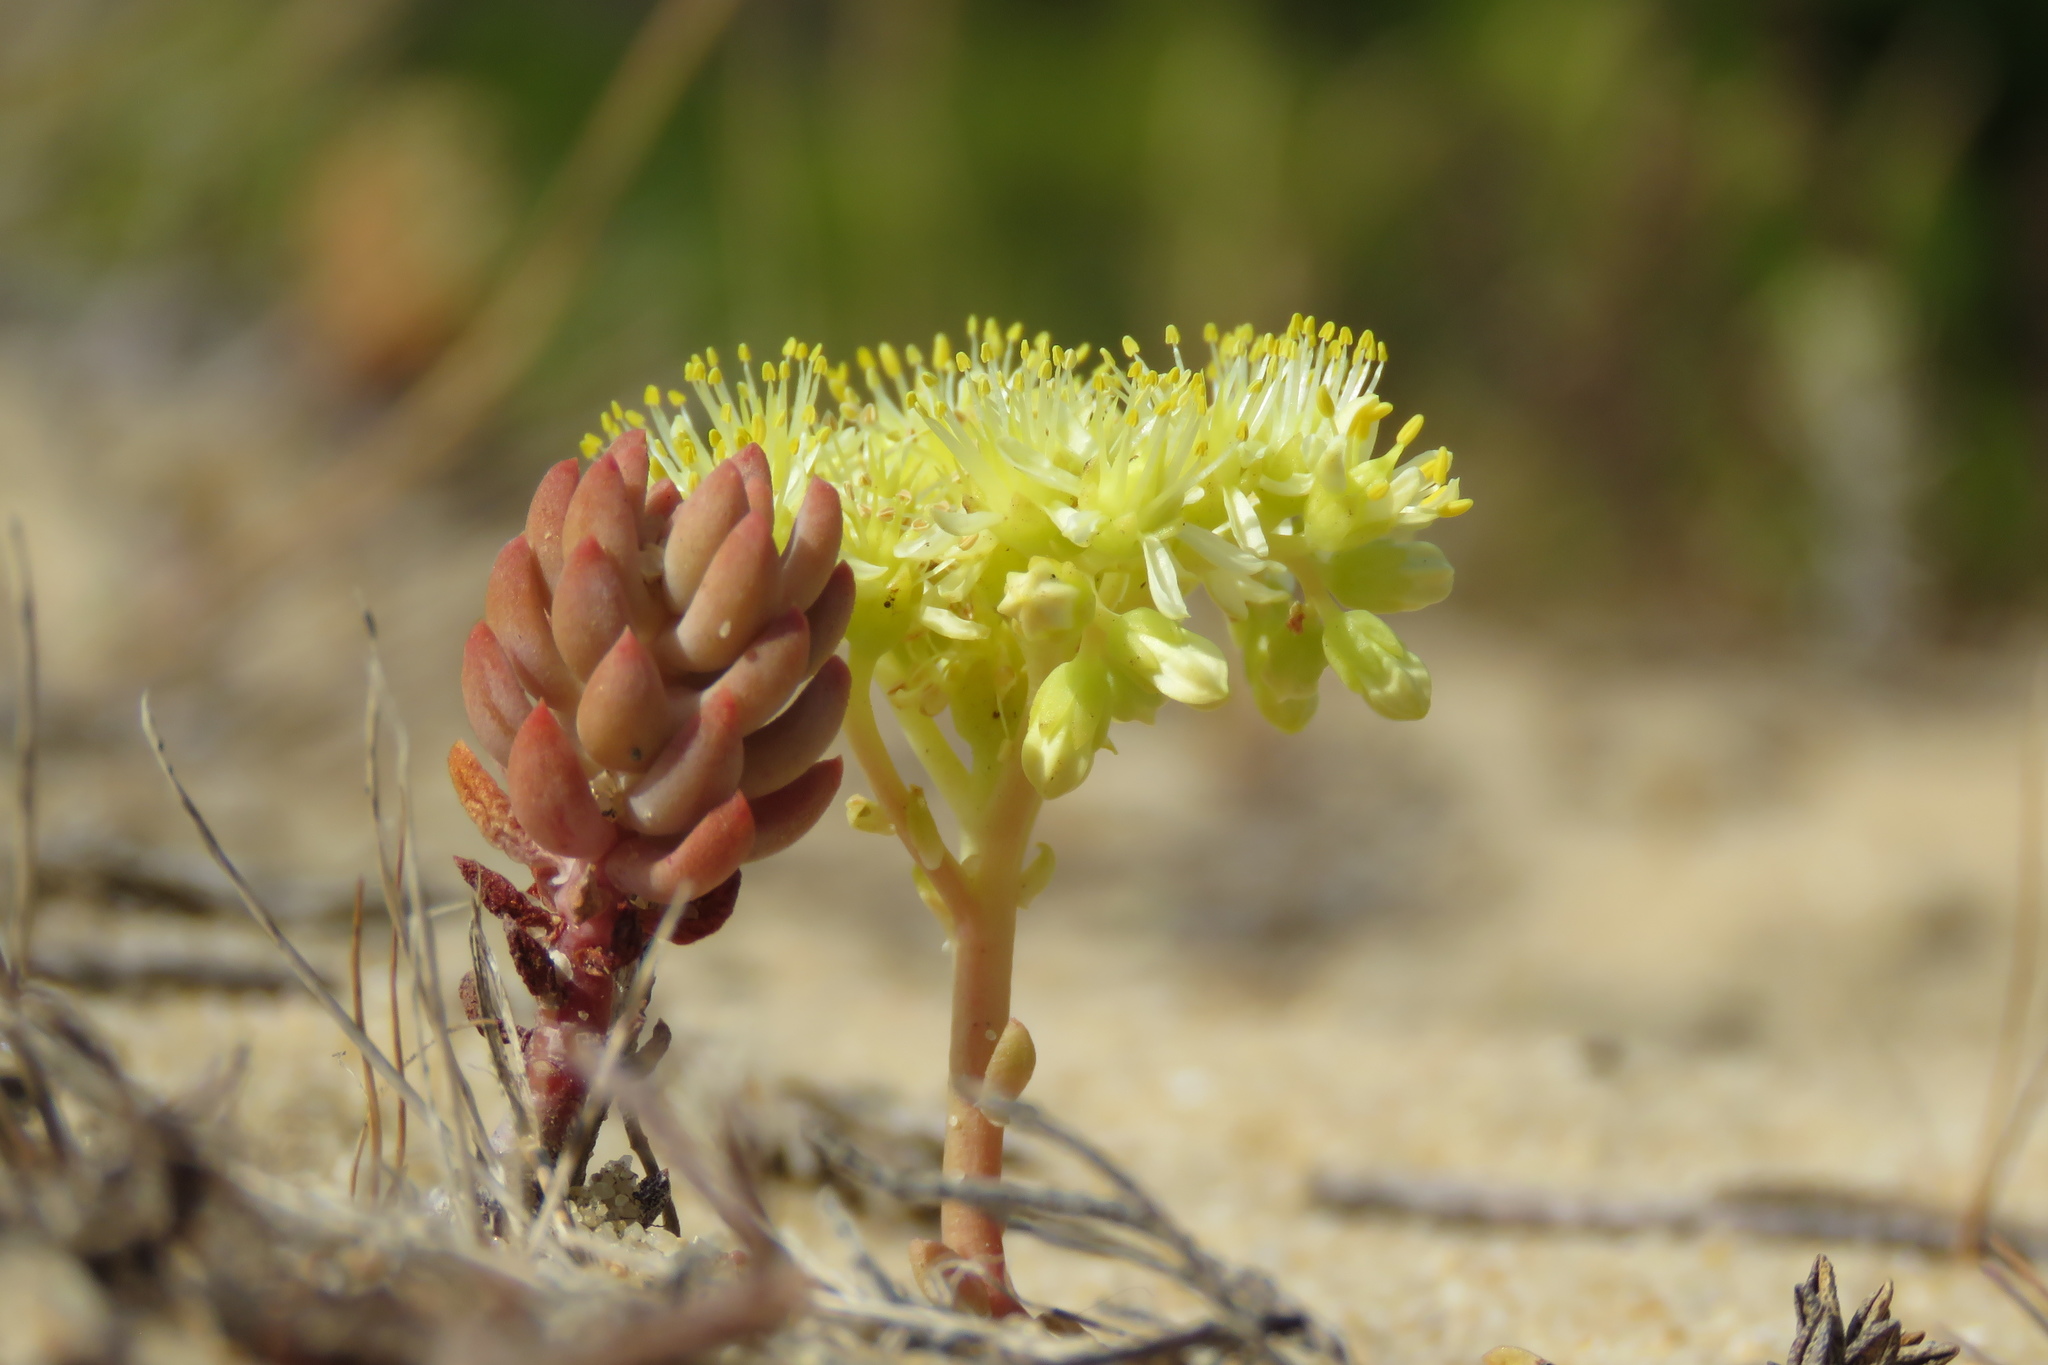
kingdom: Plantae
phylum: Tracheophyta
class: Magnoliopsida
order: Saxifragales
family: Crassulaceae
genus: Petrosedum
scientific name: Petrosedum sediforme
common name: Pale stonecrop
